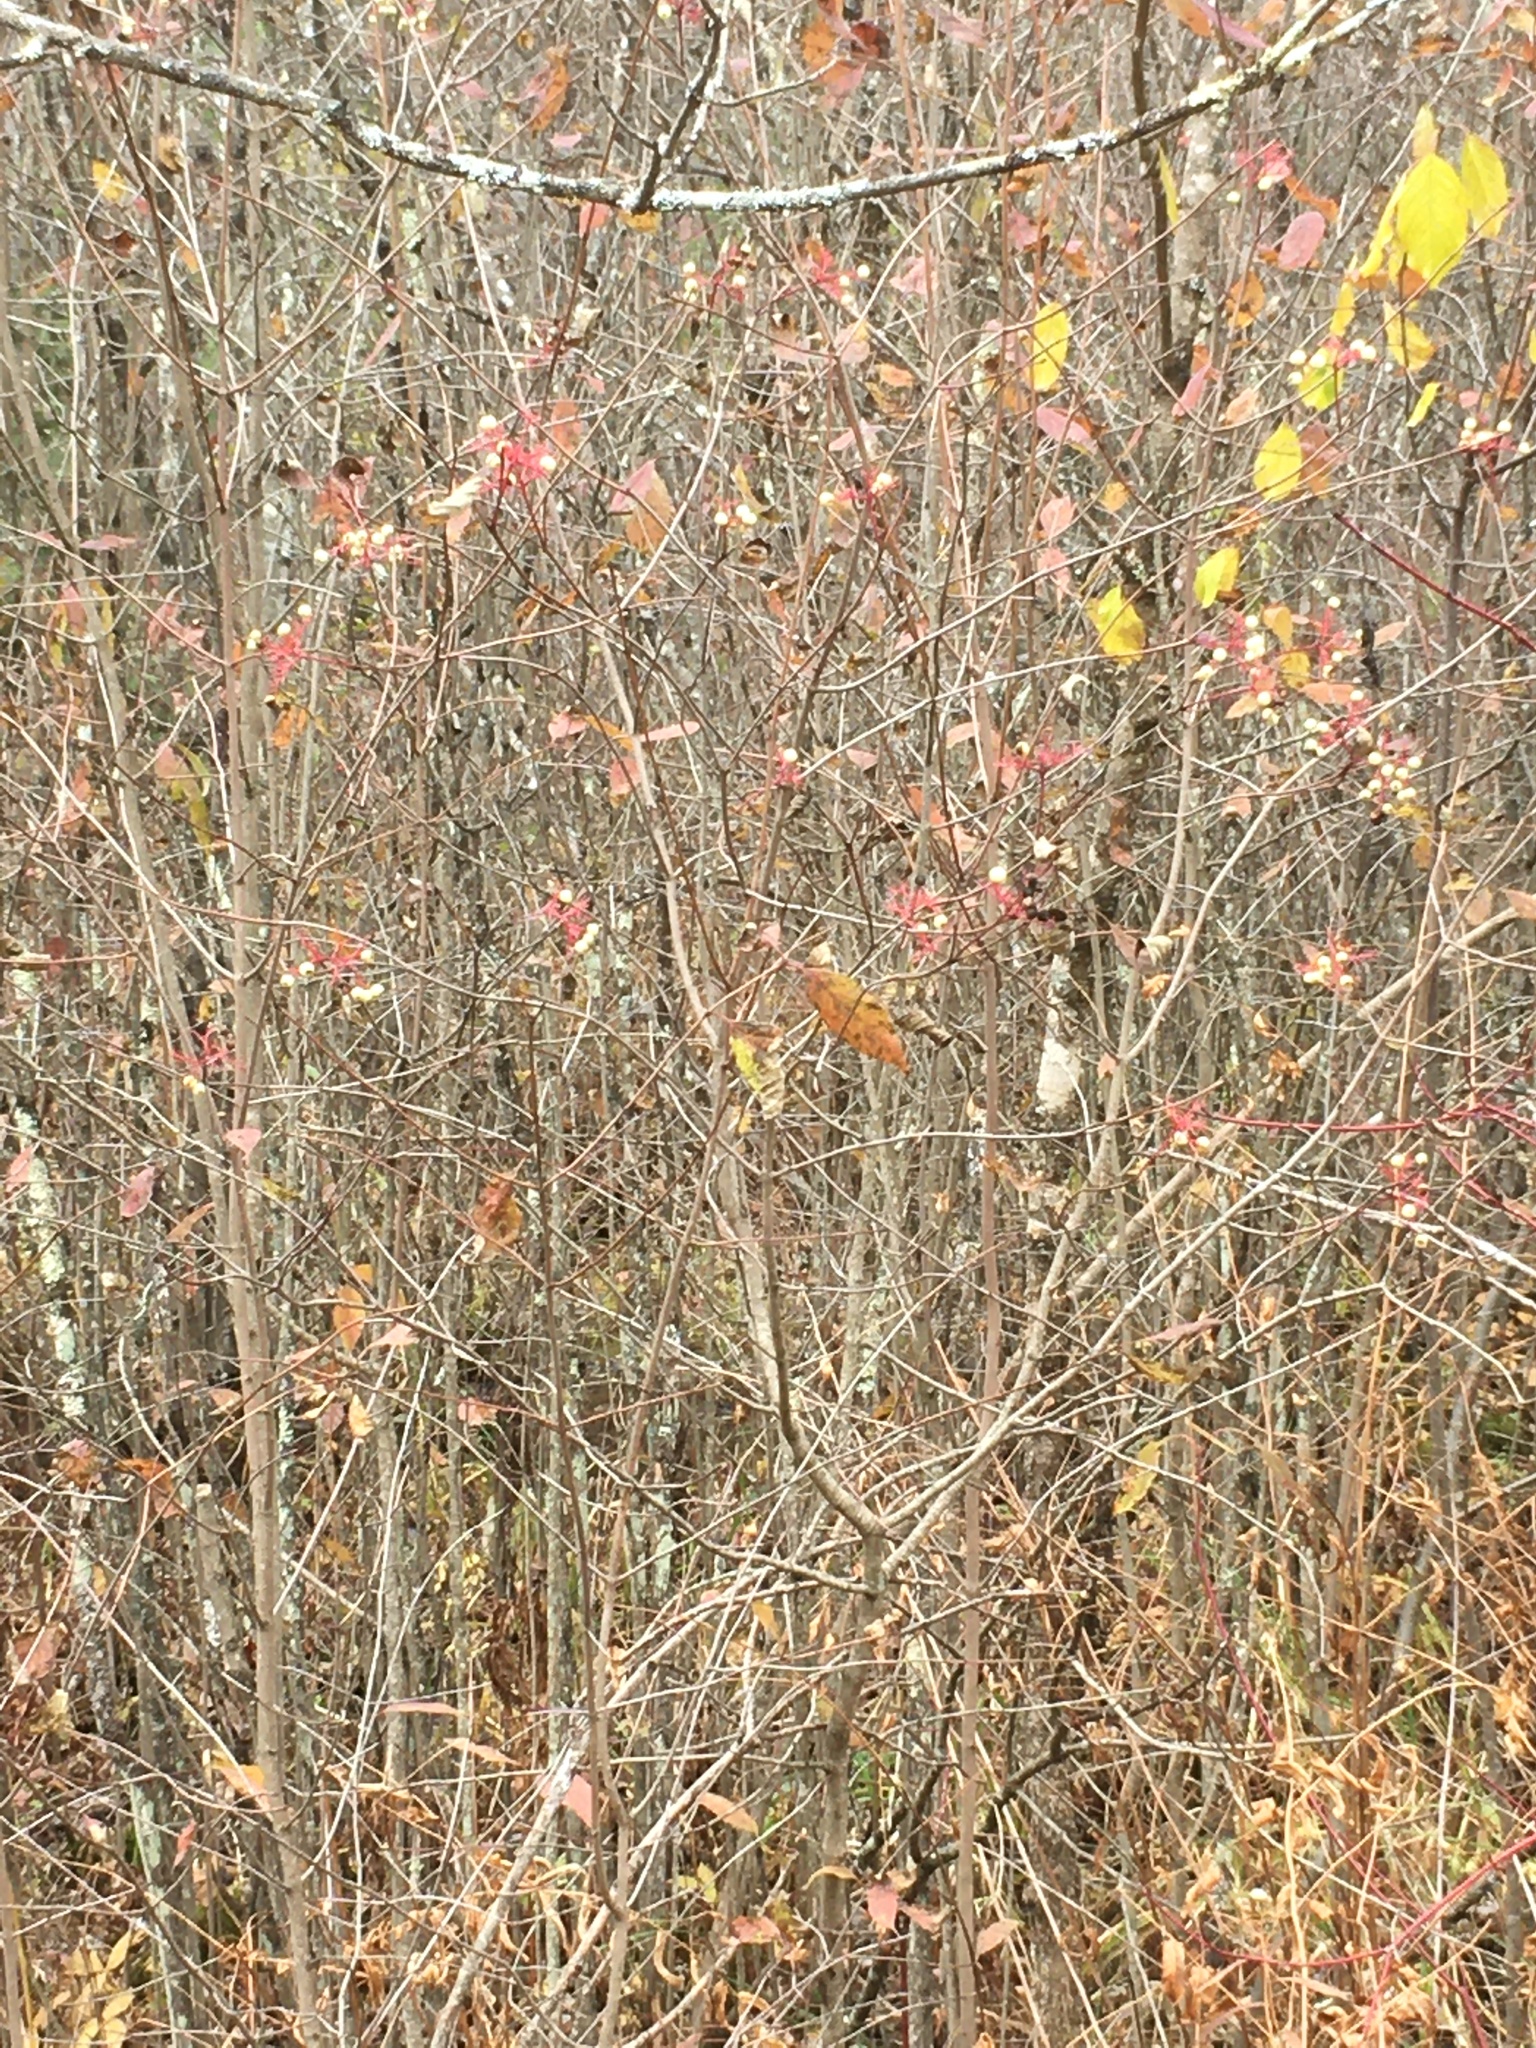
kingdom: Plantae
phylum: Tracheophyta
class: Magnoliopsida
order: Cornales
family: Cornaceae
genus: Cornus
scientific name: Cornus racemosa
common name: Panicled dogwood
